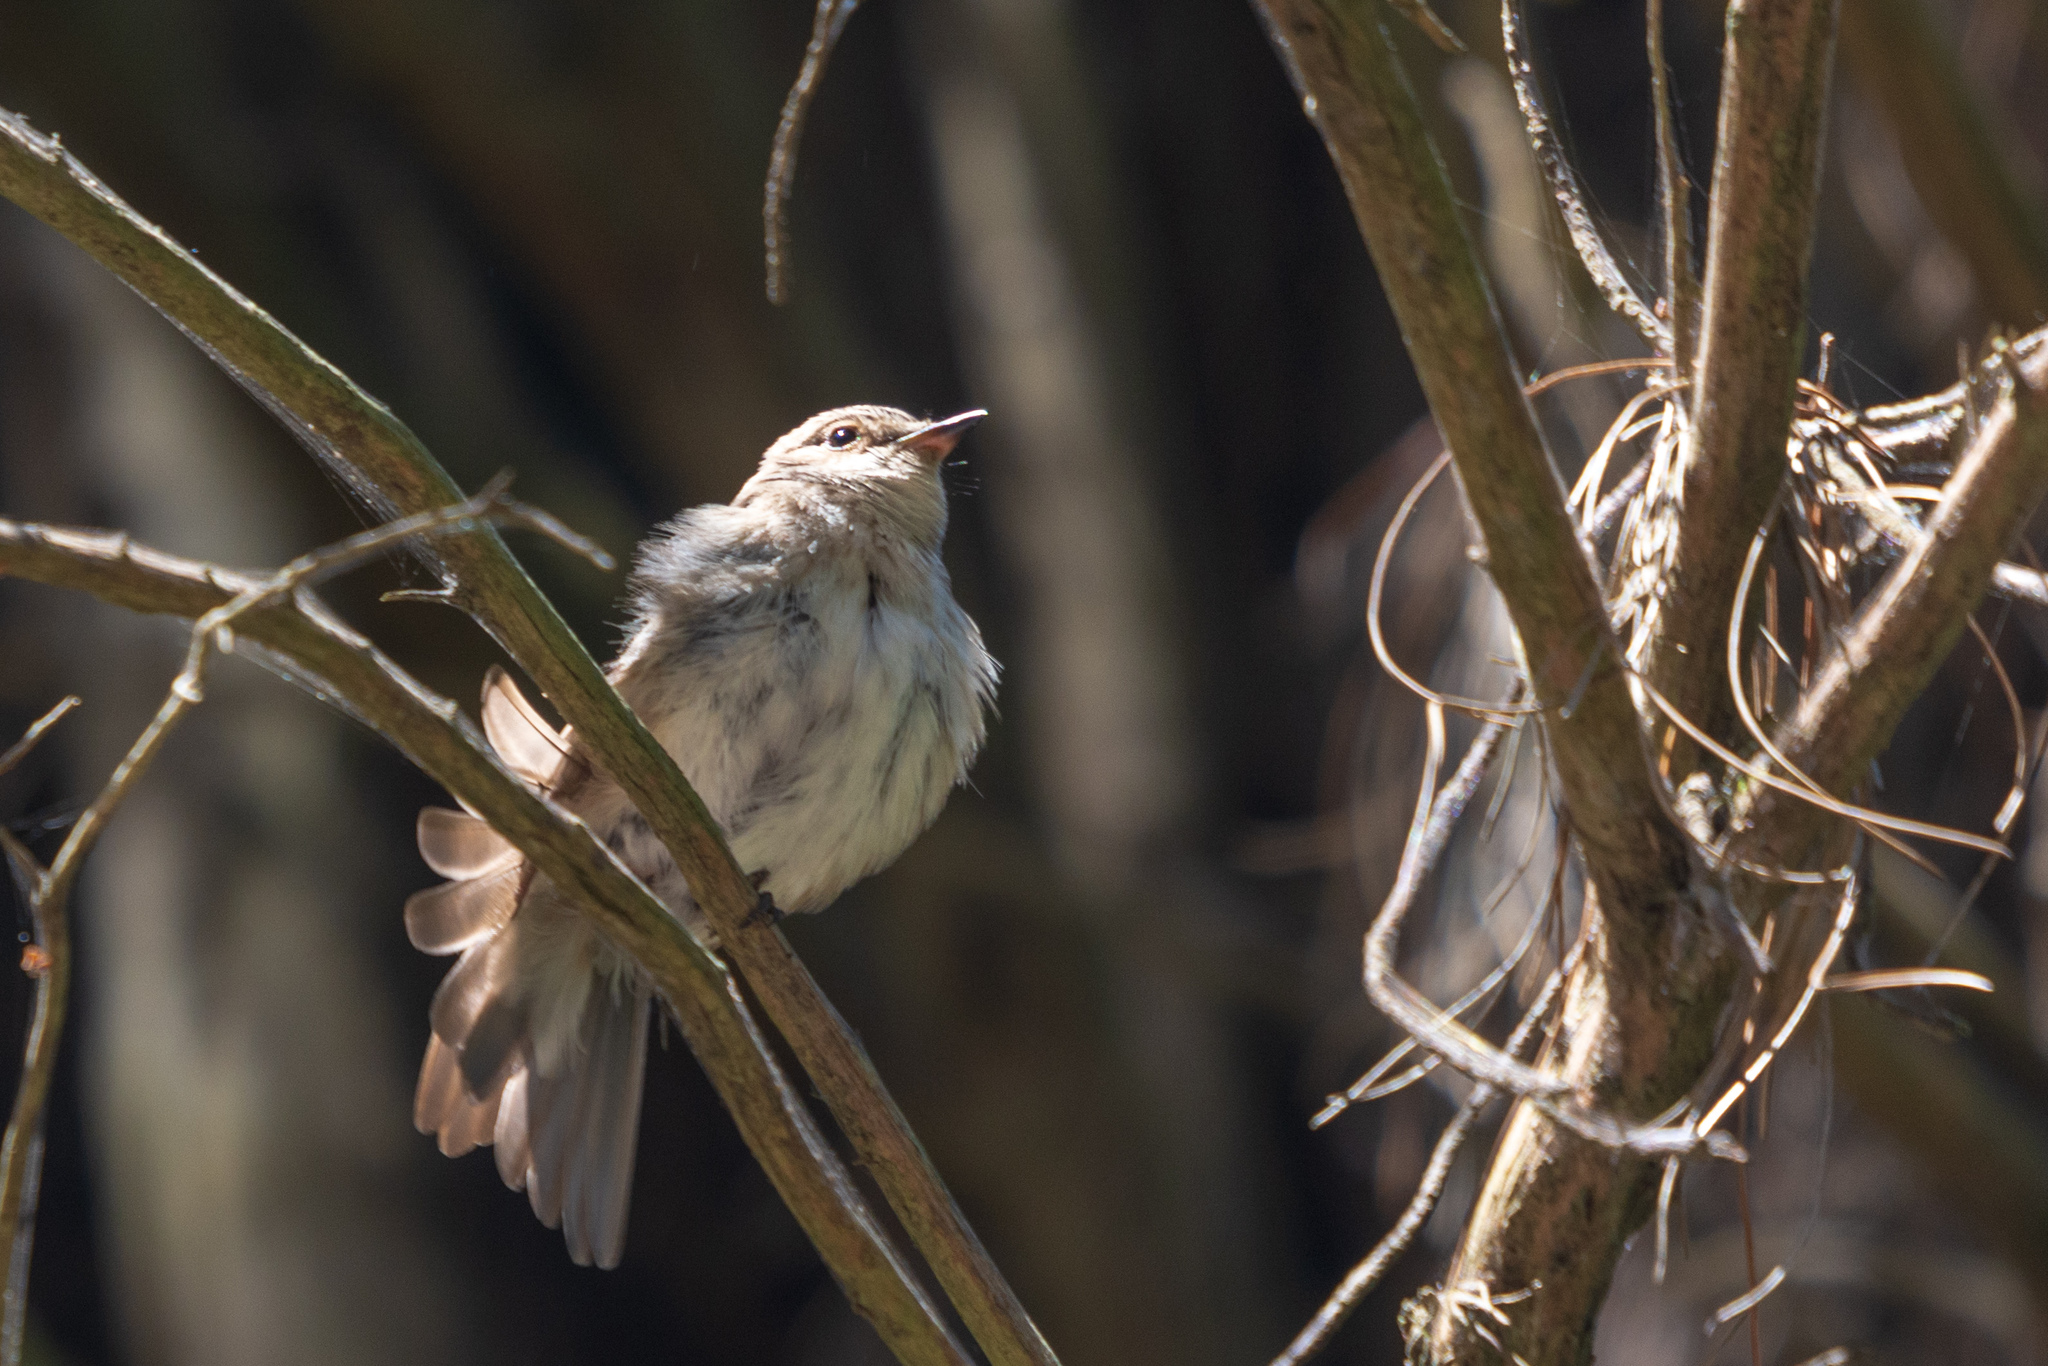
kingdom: Animalia
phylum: Chordata
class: Aves
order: Passeriformes
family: Muscicapidae
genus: Muscicapa
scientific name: Muscicapa striata
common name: Spotted flycatcher
